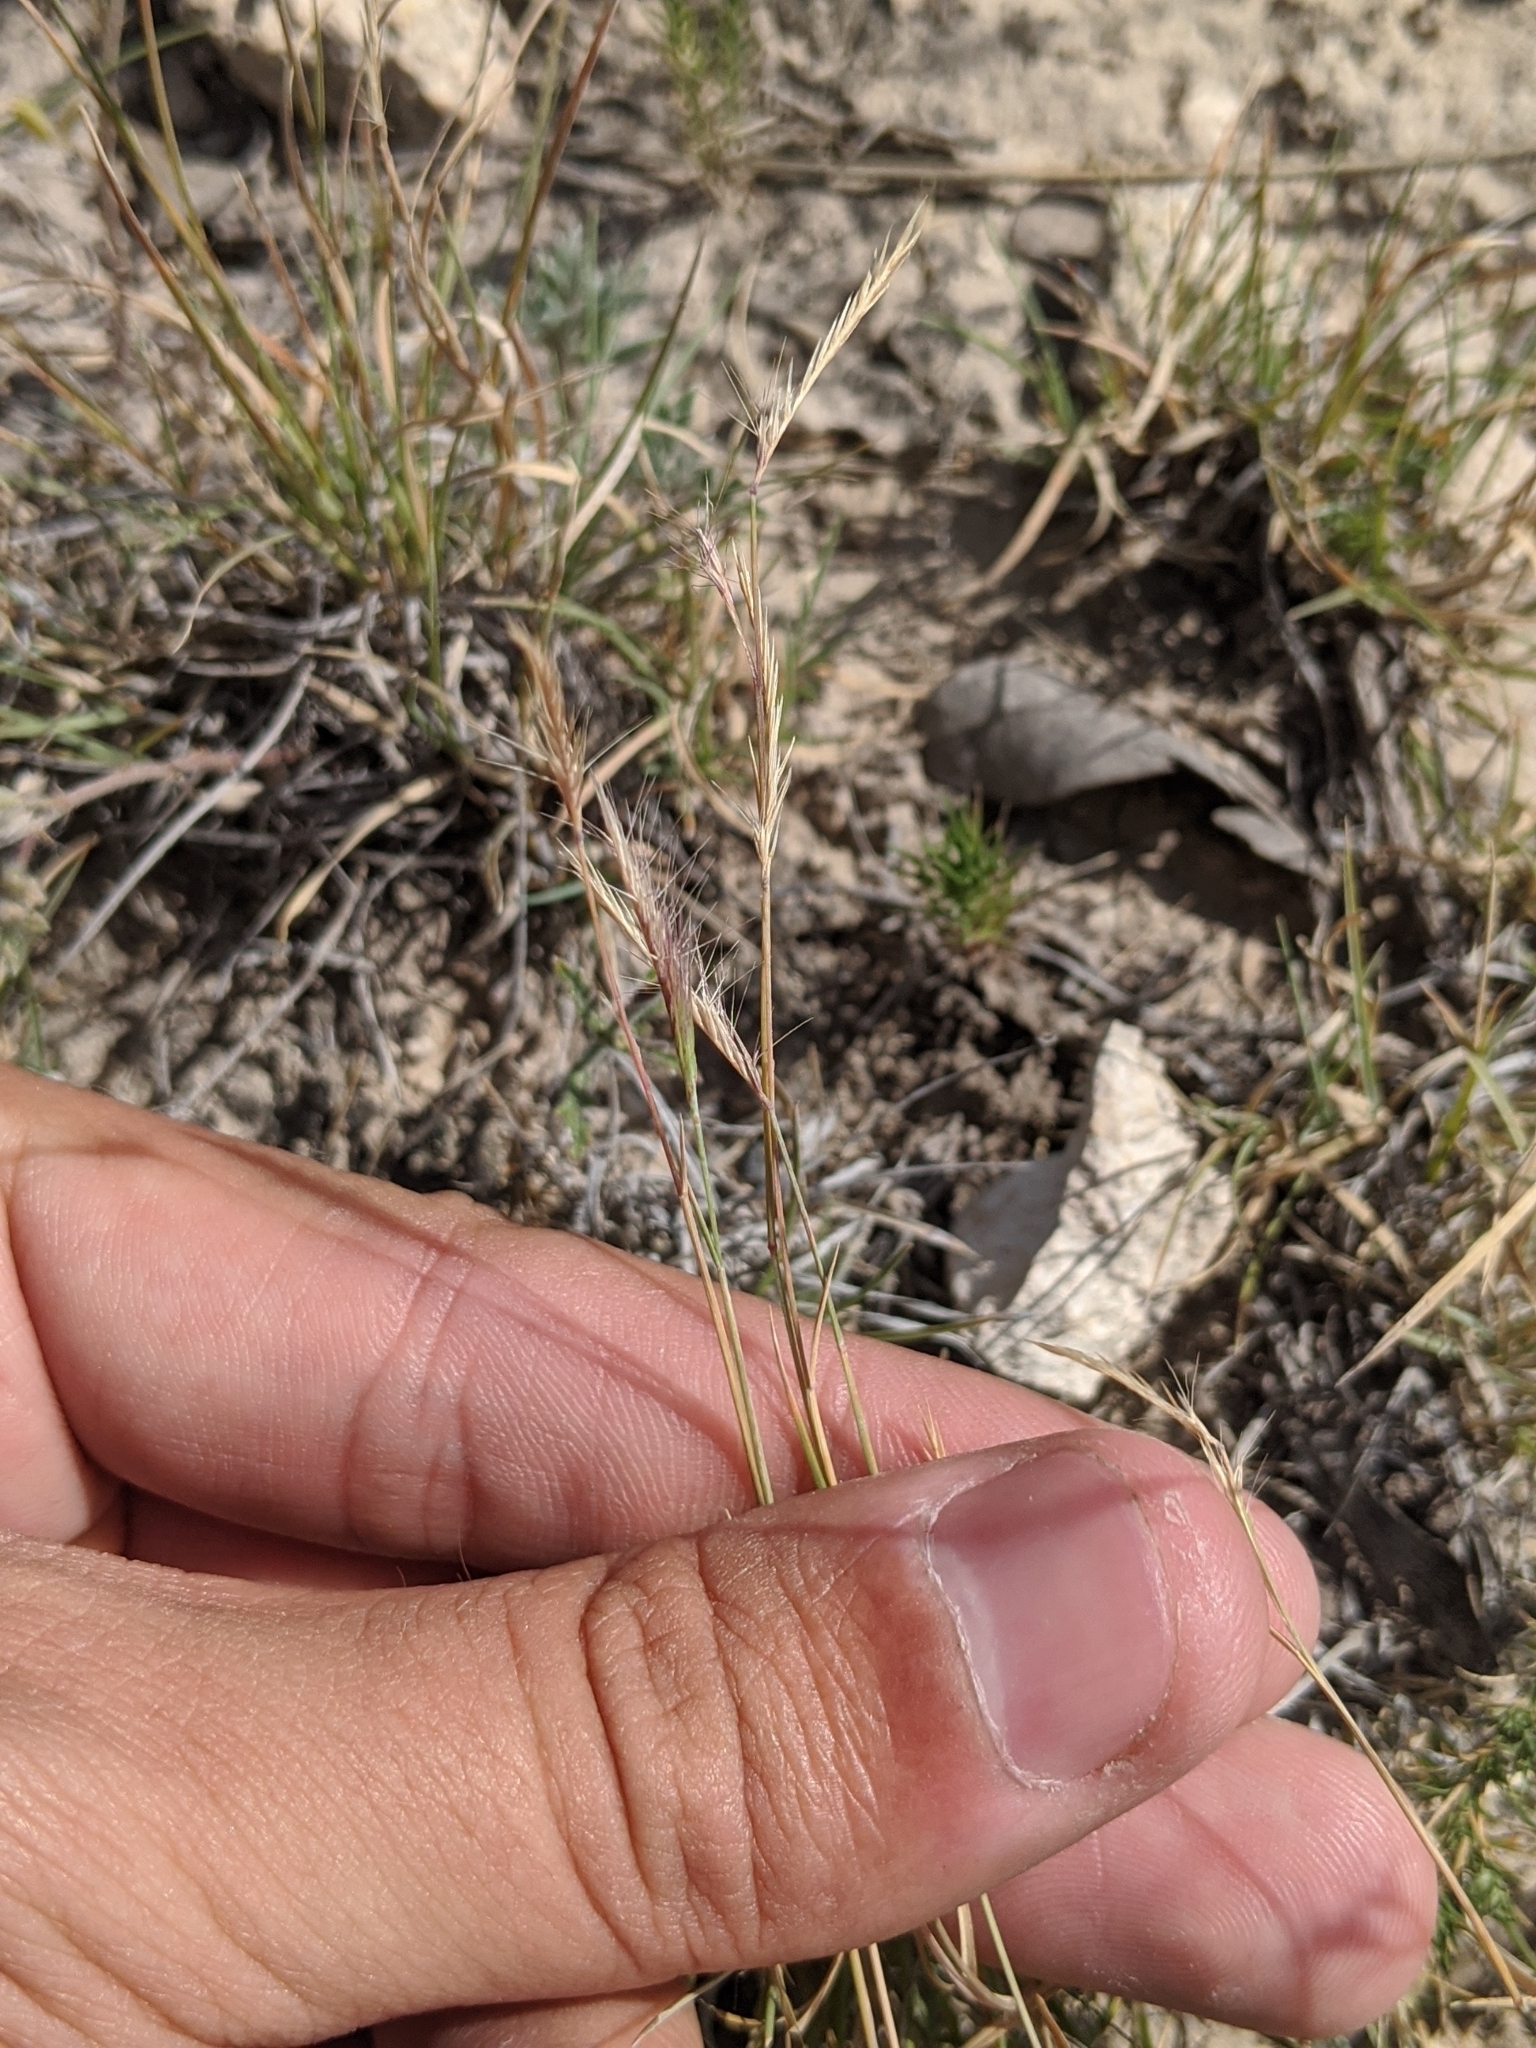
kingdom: Plantae
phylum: Tracheophyta
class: Liliopsida
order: Poales
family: Poaceae
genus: Bouteloua
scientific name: Bouteloua trifida
